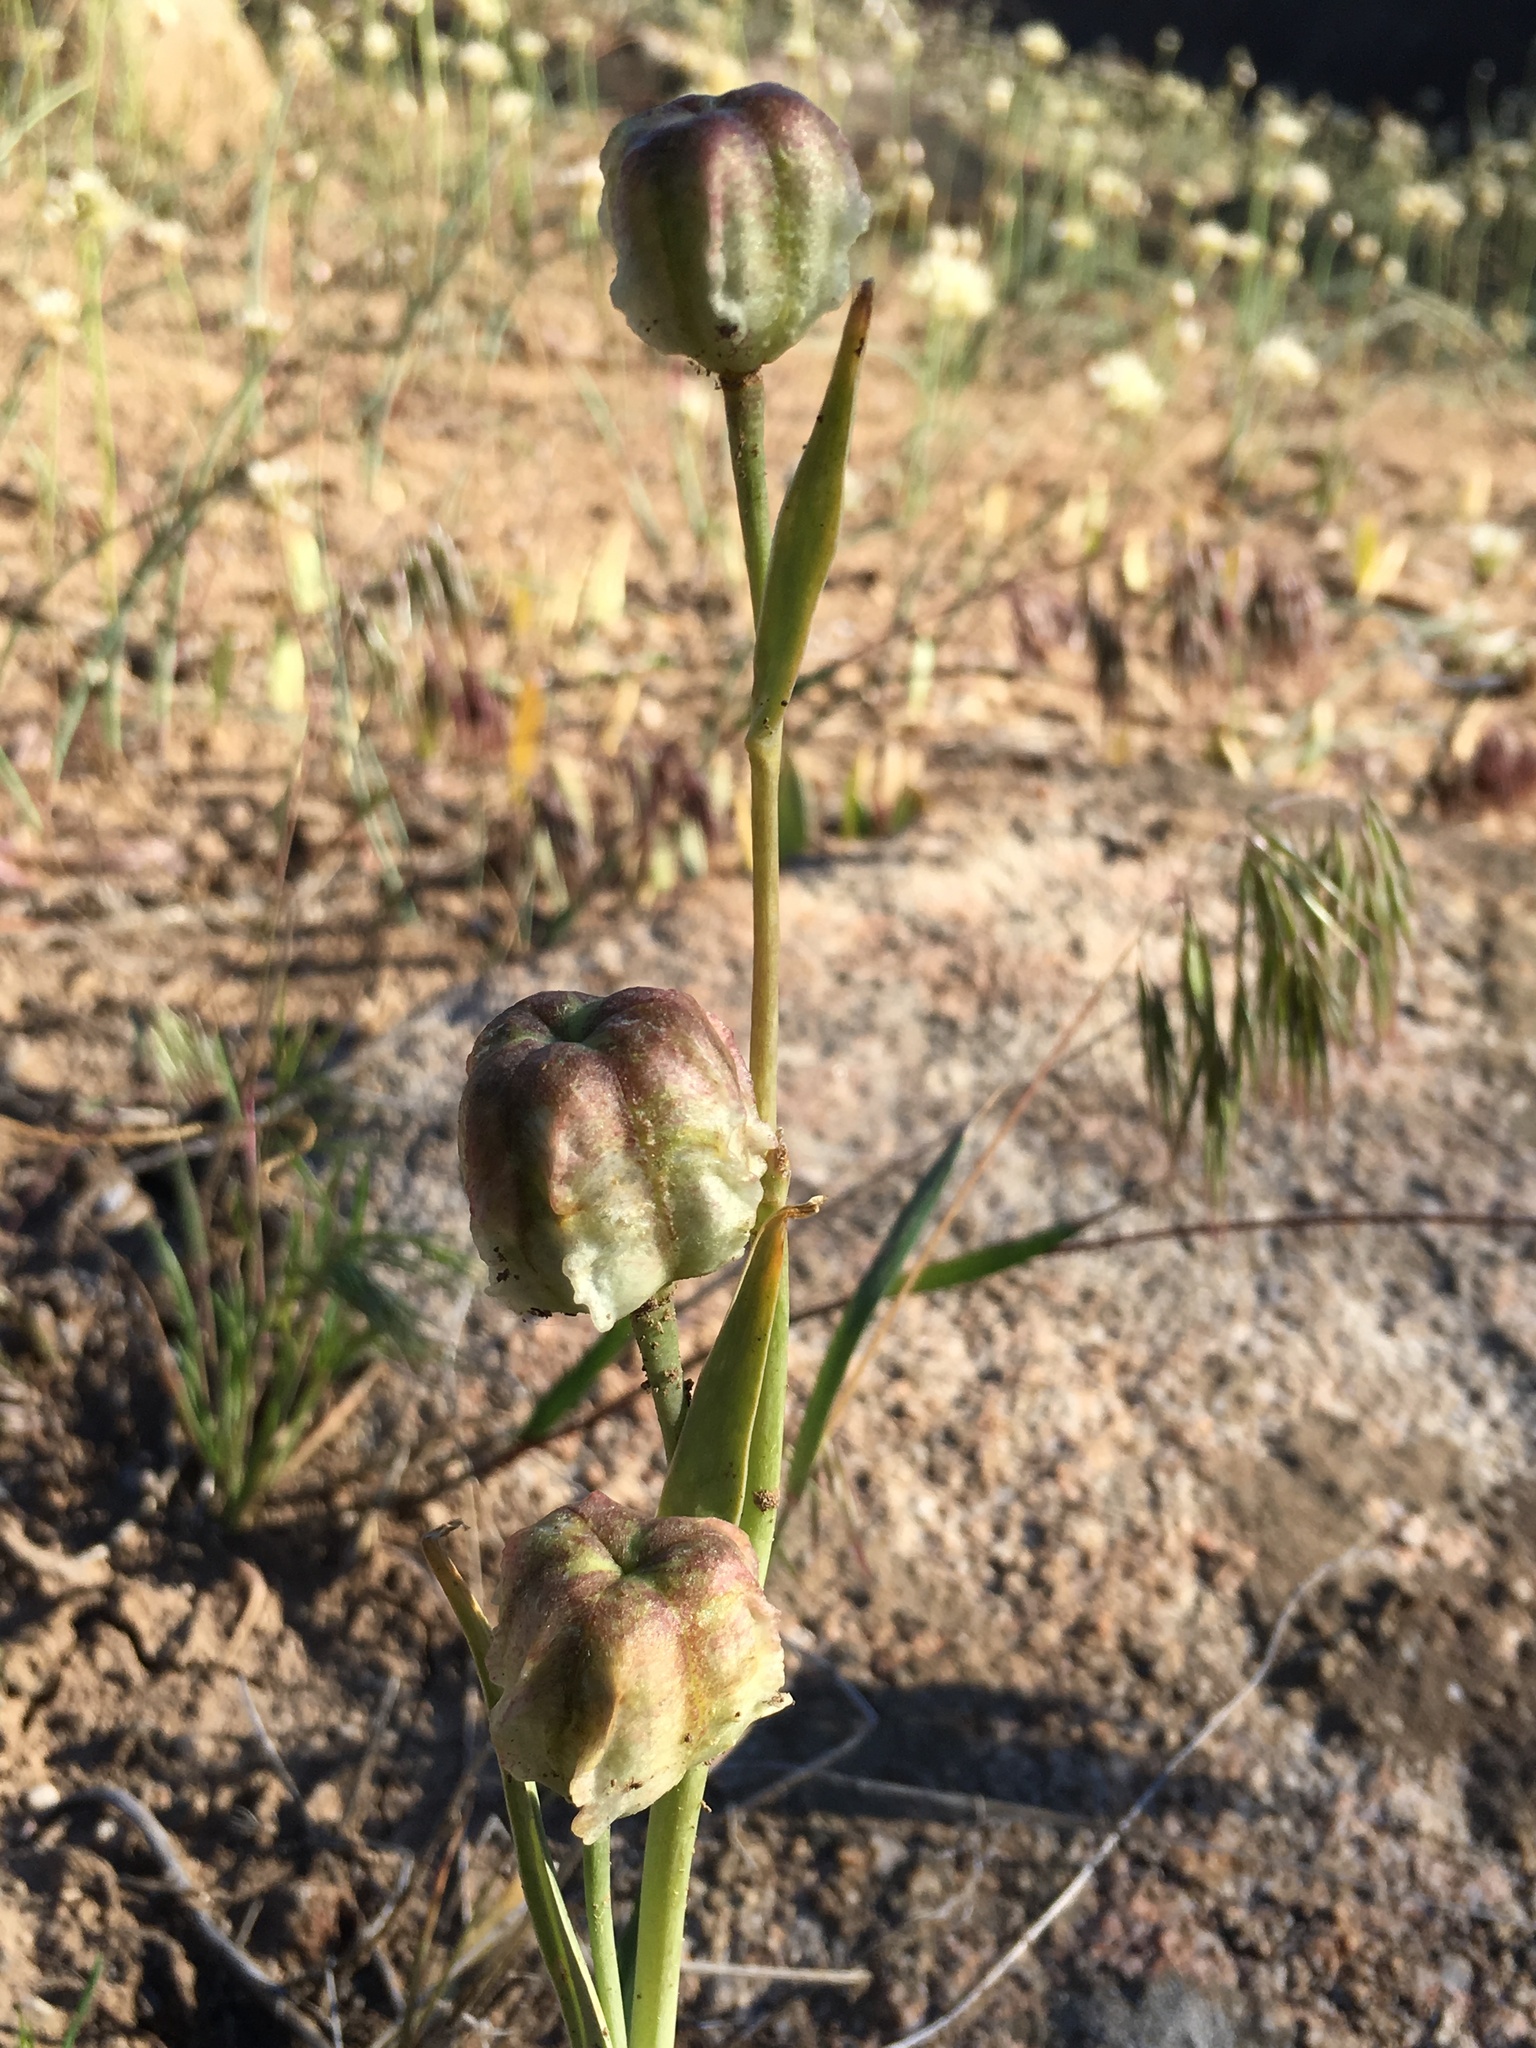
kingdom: Plantae
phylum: Tracheophyta
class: Liliopsida
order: Liliales
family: Liliaceae
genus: Fritillaria
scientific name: Fritillaria agrestis
